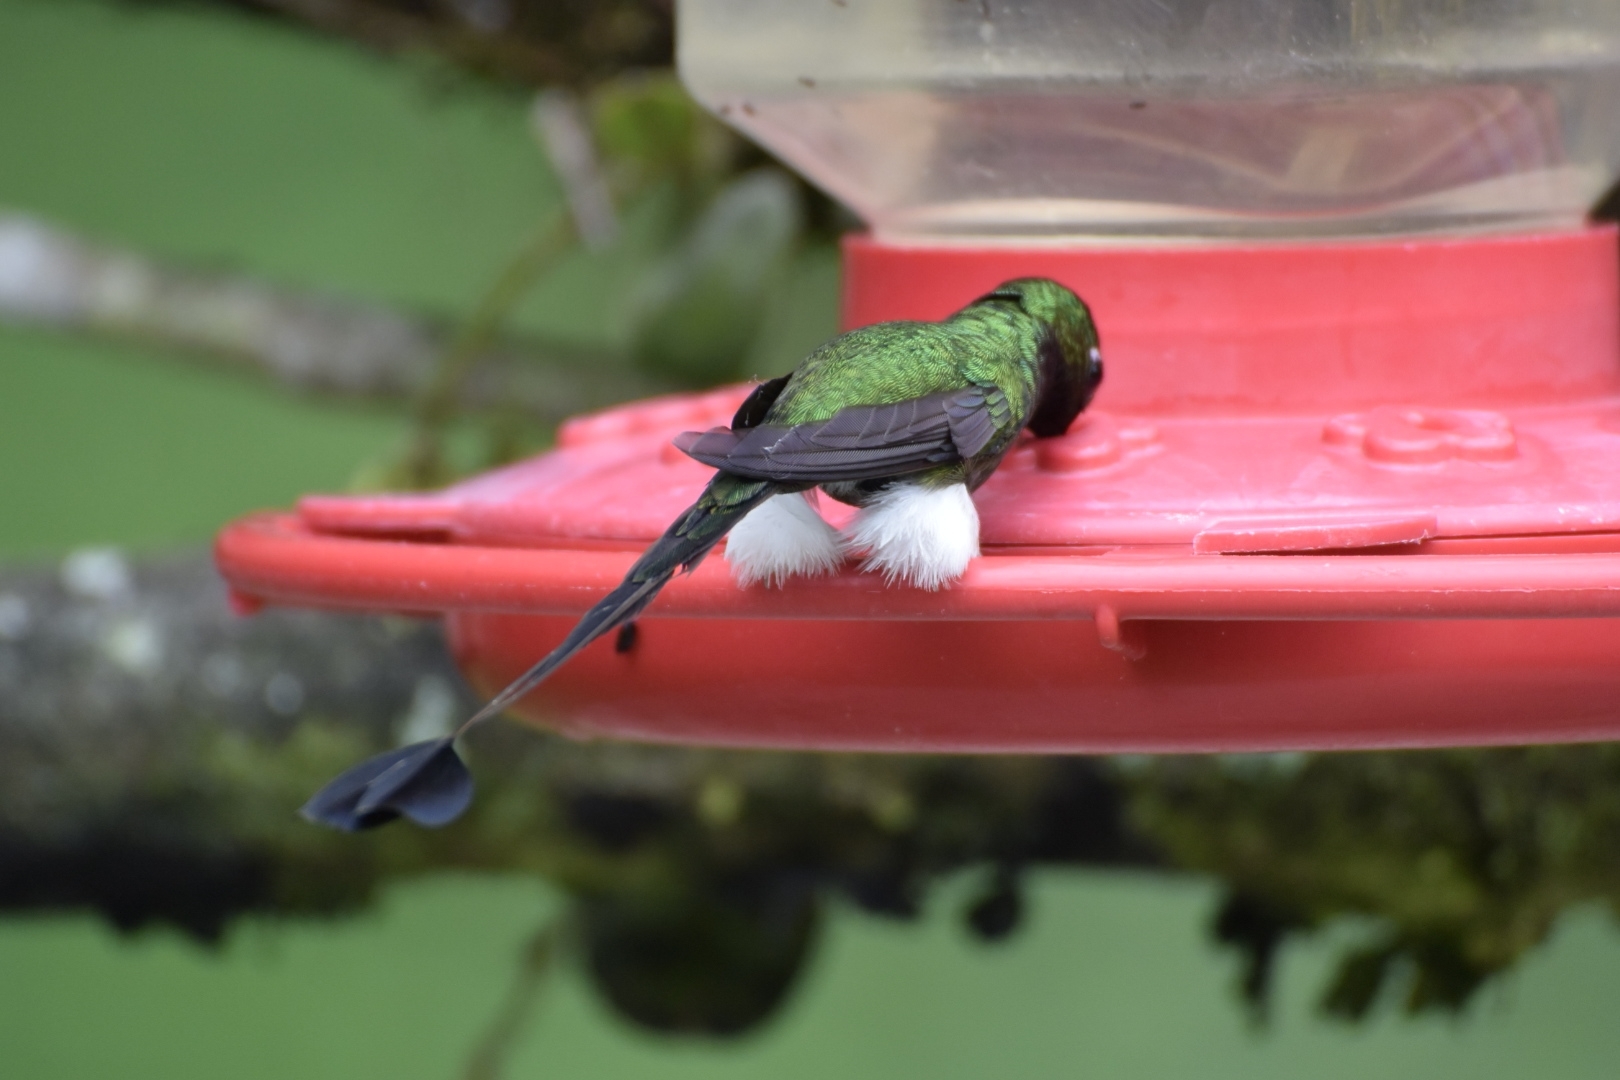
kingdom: Animalia
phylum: Chordata
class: Aves
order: Apodiformes
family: Trochilidae
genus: Ocreatus
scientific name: Ocreatus underwoodii
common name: Booted racket-tail
